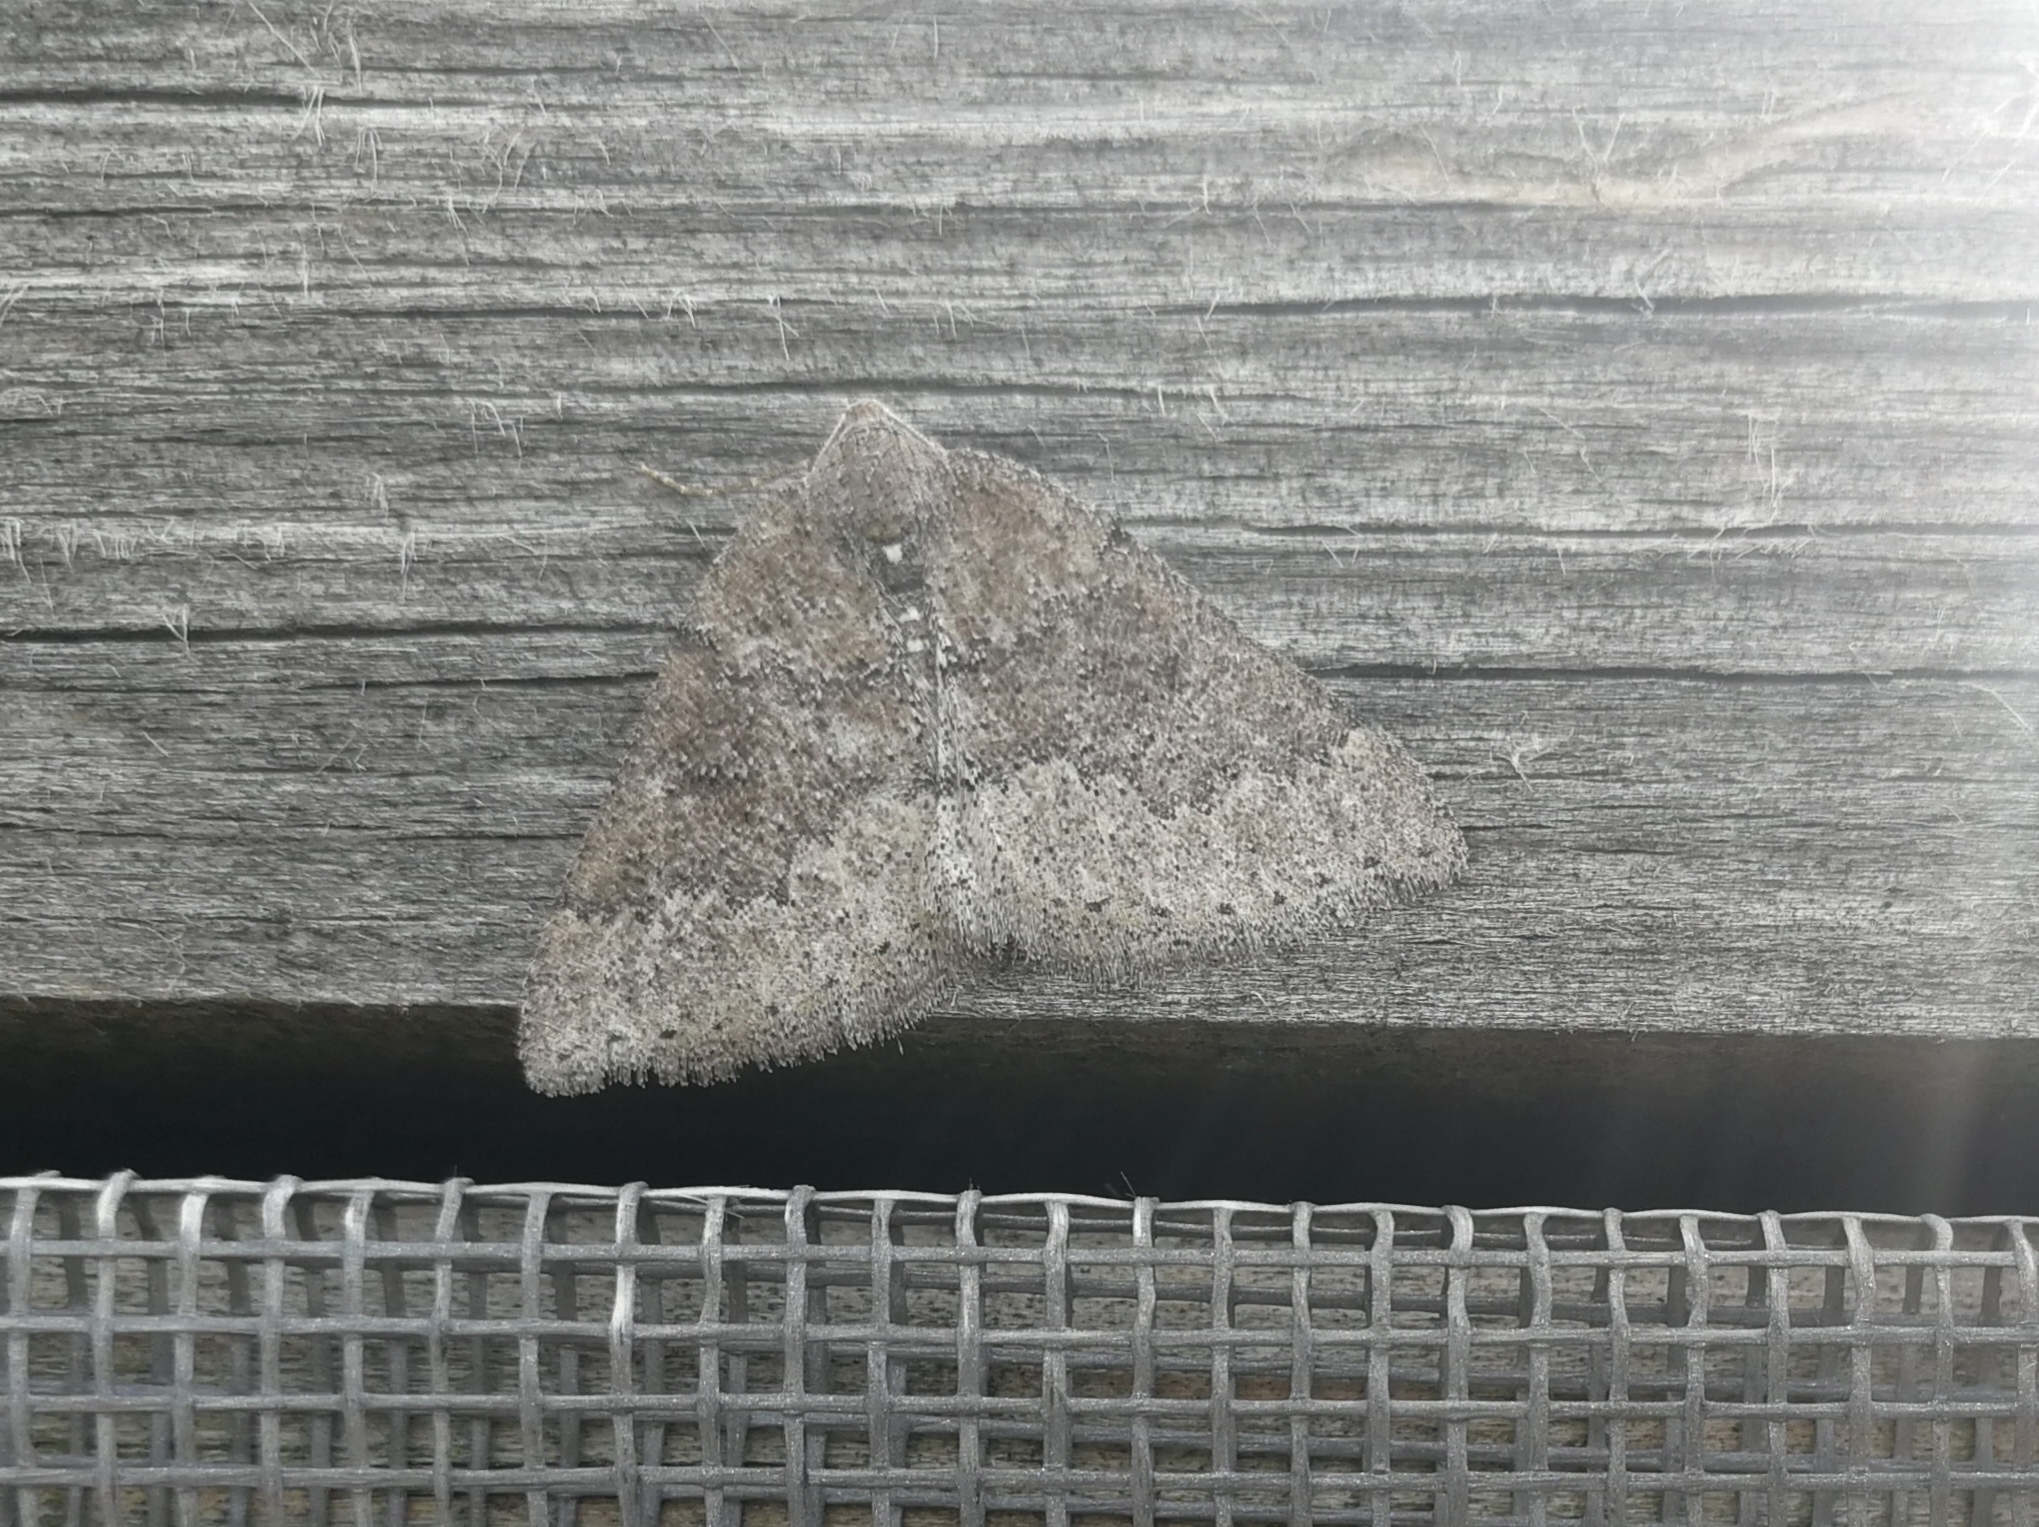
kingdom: Animalia
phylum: Arthropoda
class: Insecta
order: Lepidoptera
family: Geometridae
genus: Aleucis
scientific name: Aleucis distinctata
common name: Sloe carpet
